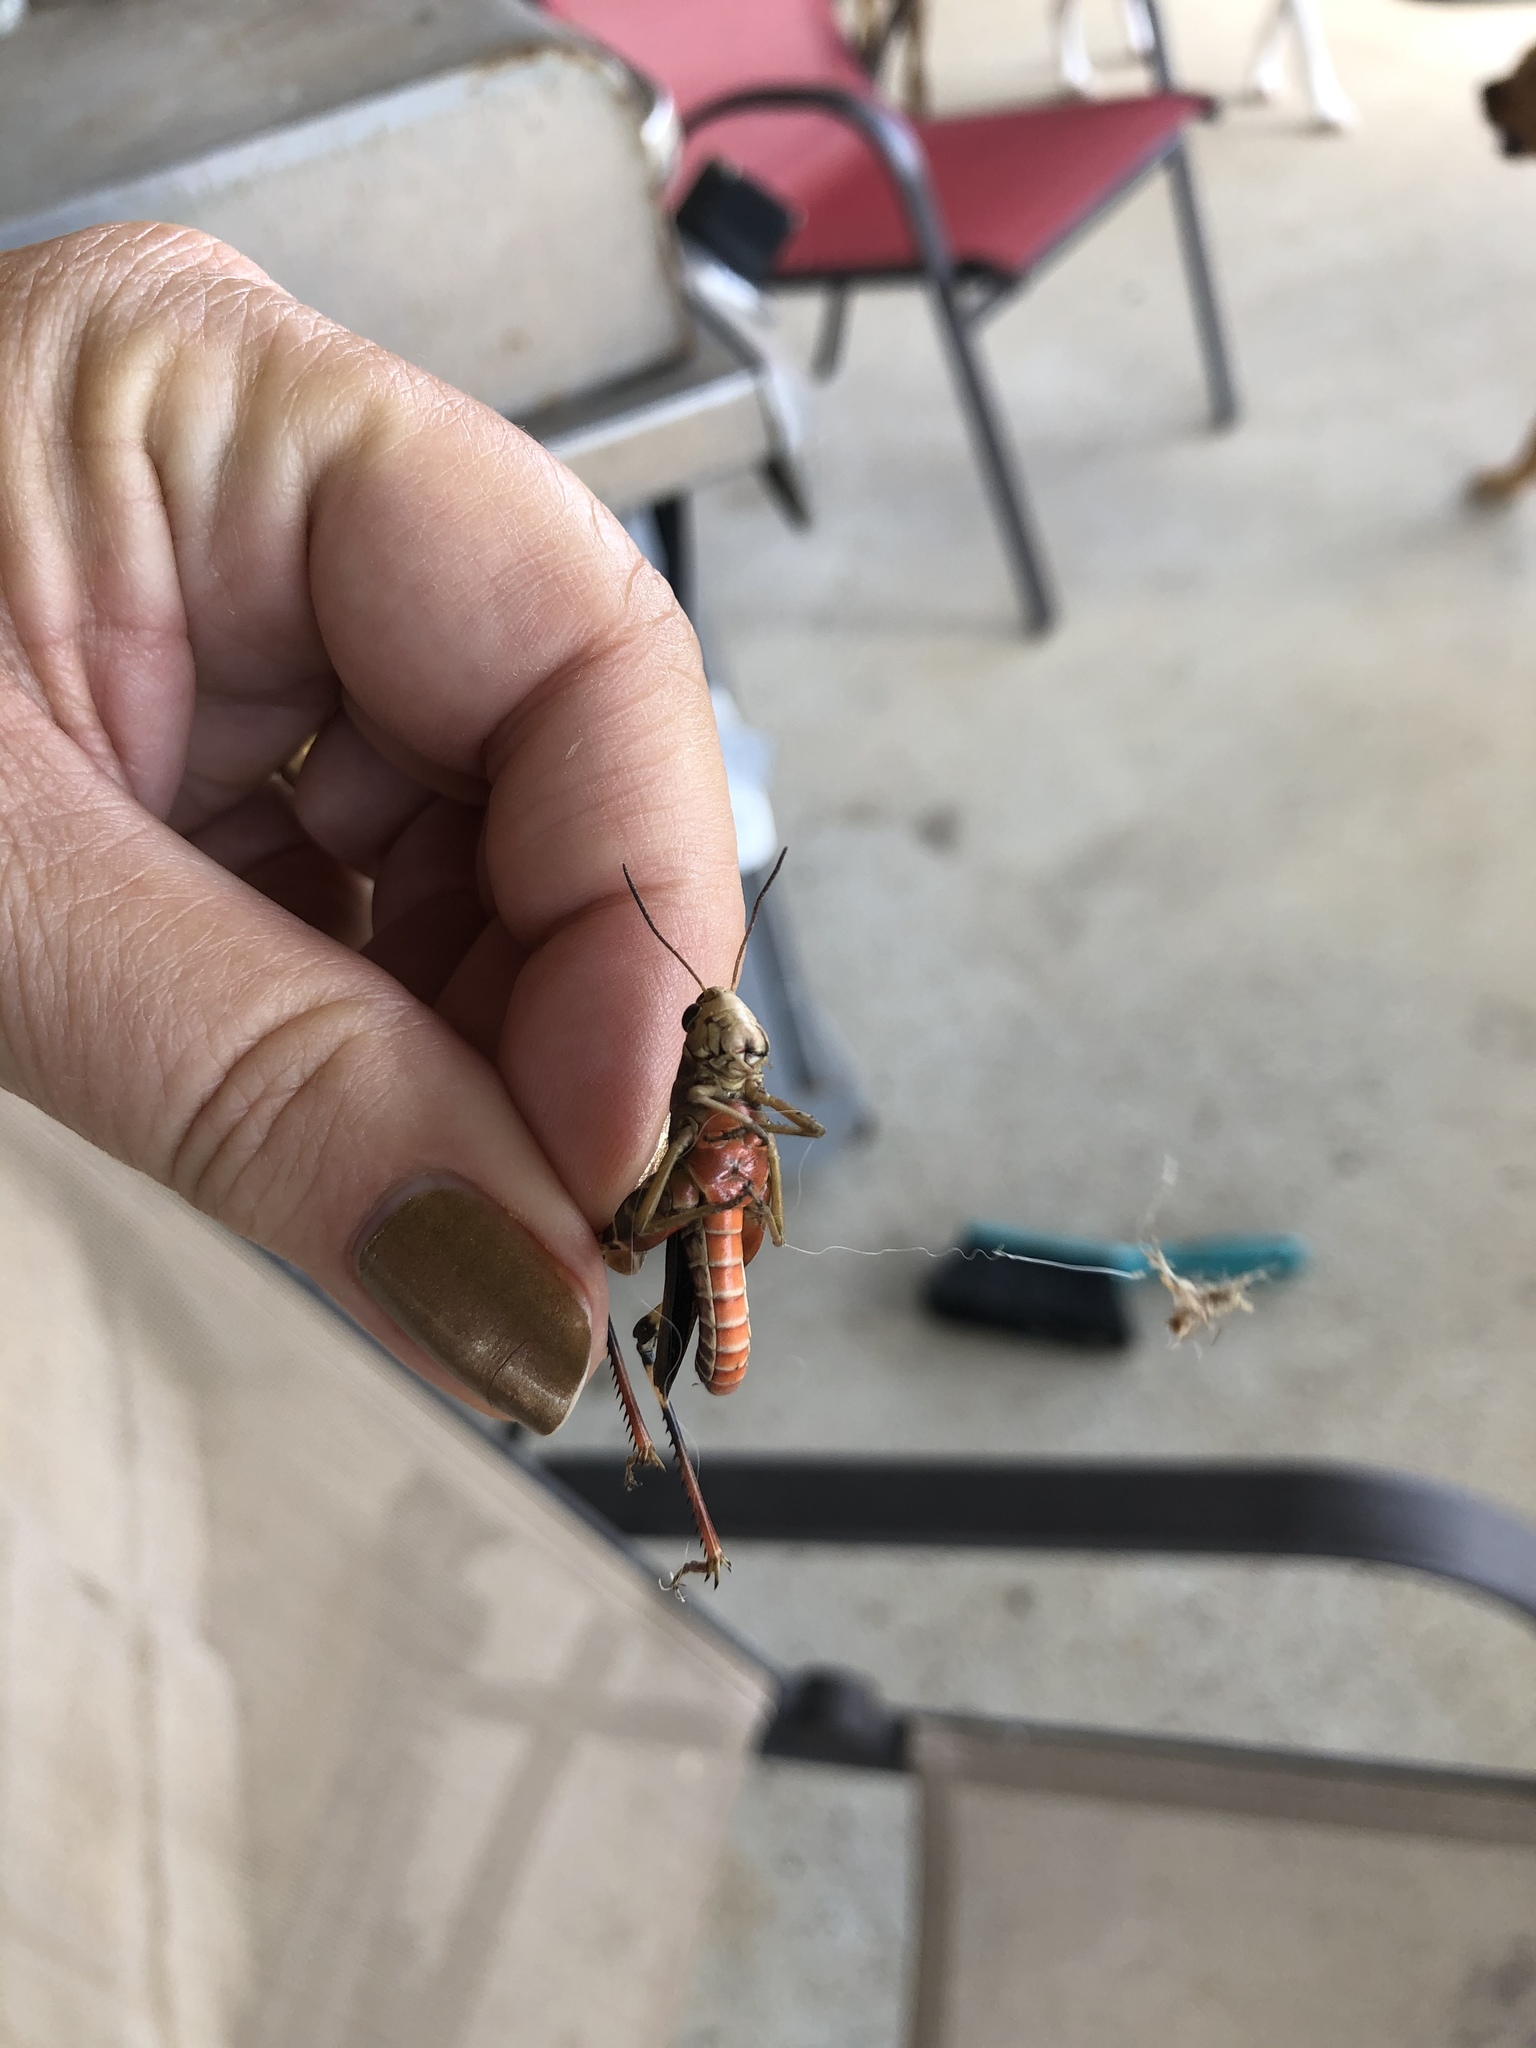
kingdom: Animalia
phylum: Arthropoda
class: Insecta
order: Orthoptera
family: Acrididae
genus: Boopedon
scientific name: Boopedon gracile
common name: Graceful range grasshopper
